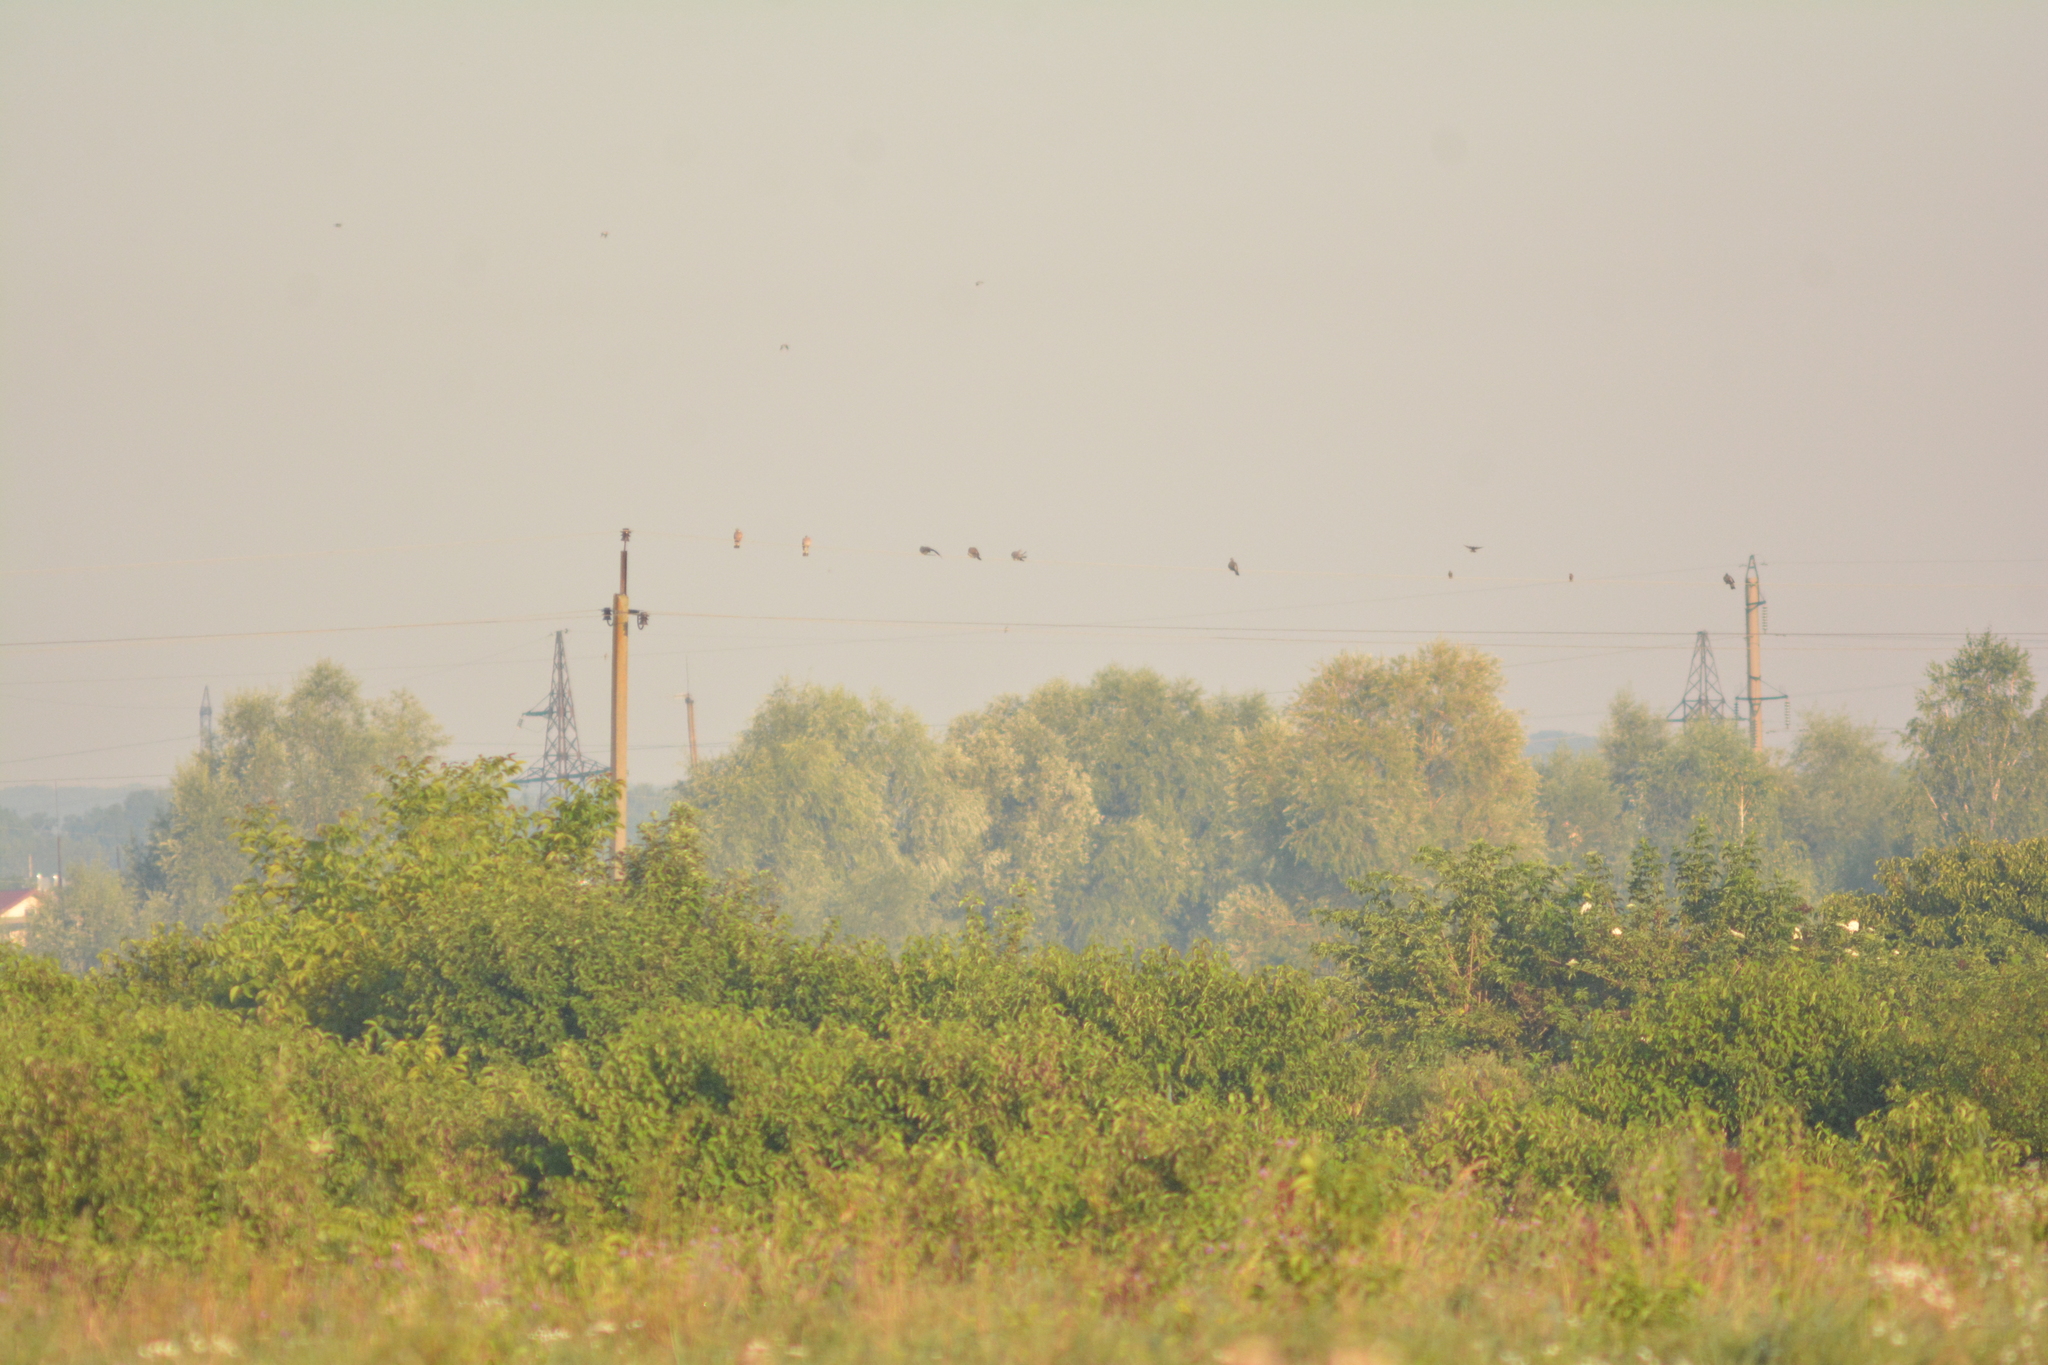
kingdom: Animalia
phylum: Chordata
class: Aves
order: Columbiformes
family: Columbidae
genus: Columba
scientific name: Columba palumbus
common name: Common wood pigeon
